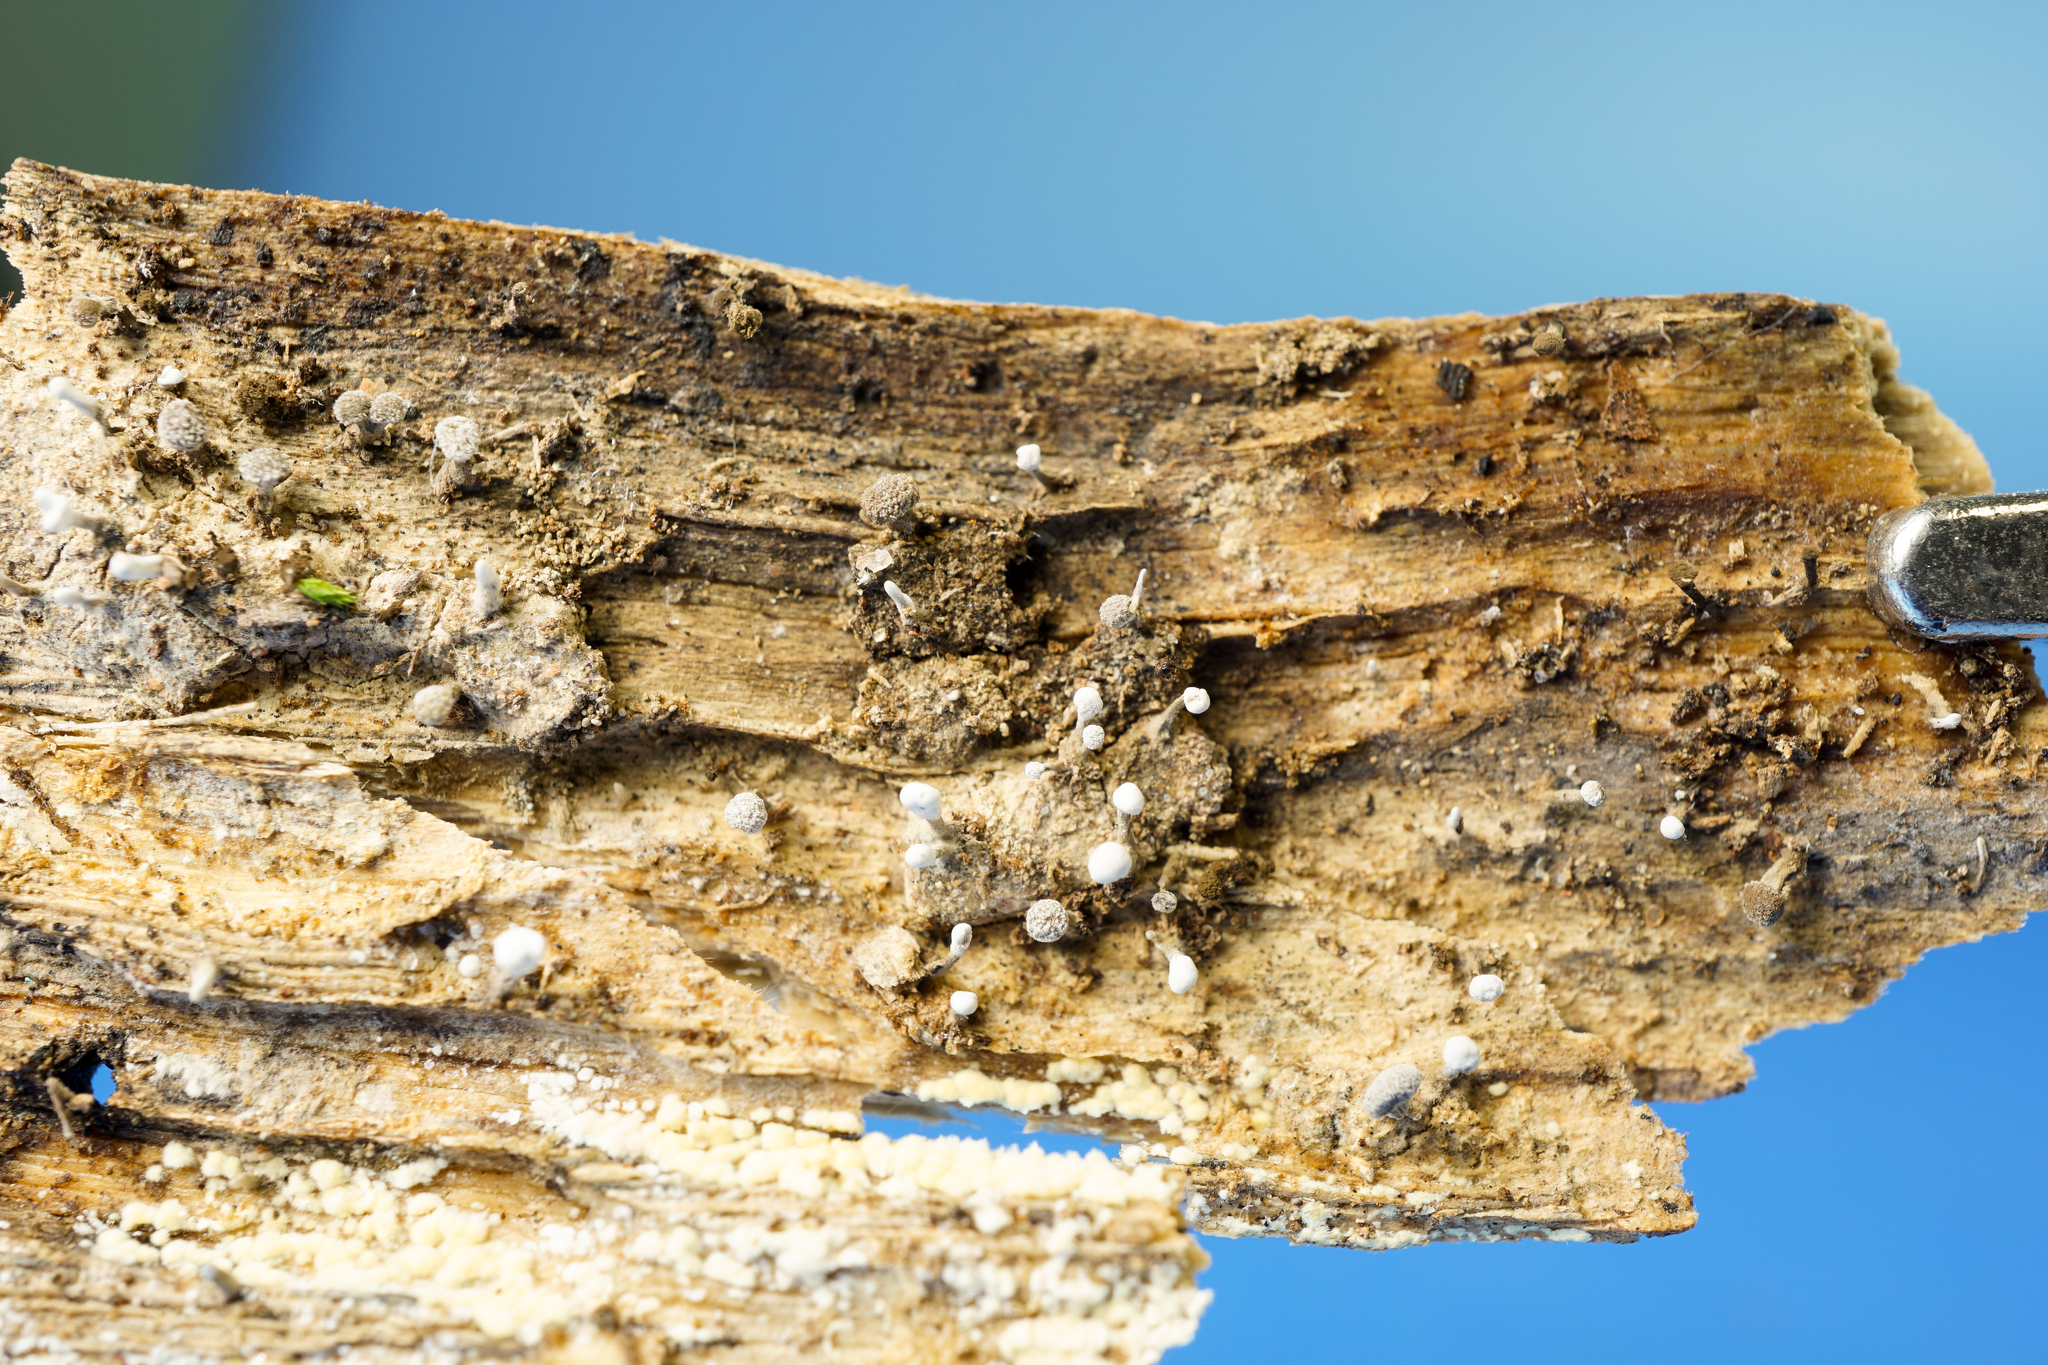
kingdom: Fungi
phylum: Basidiomycota
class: Atractiellomycetes
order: Atractiellales
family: Phleogenaceae
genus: Phleogena
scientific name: Phleogena faginea
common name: Fenugreek stalkball
